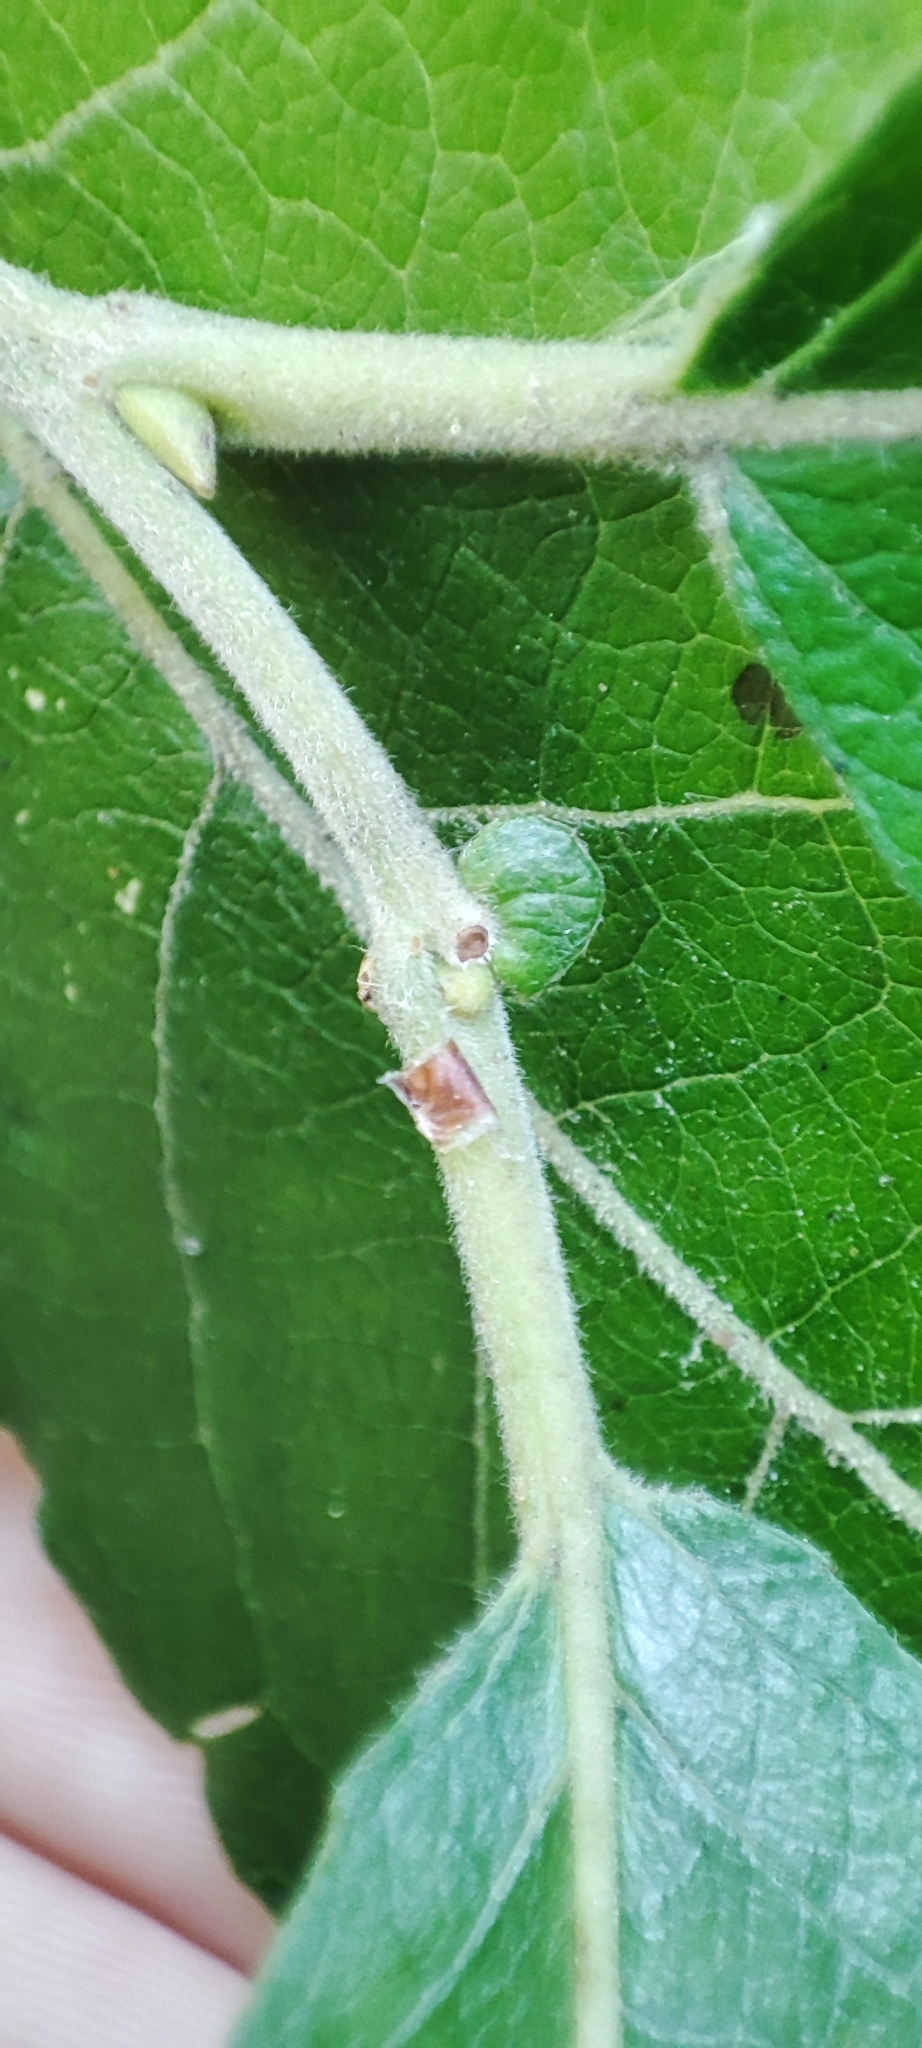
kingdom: Plantae
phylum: Tracheophyta
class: Magnoliopsida
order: Malpighiales
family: Salicaceae
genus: Salix
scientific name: Salix caprea
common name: Goat willow
